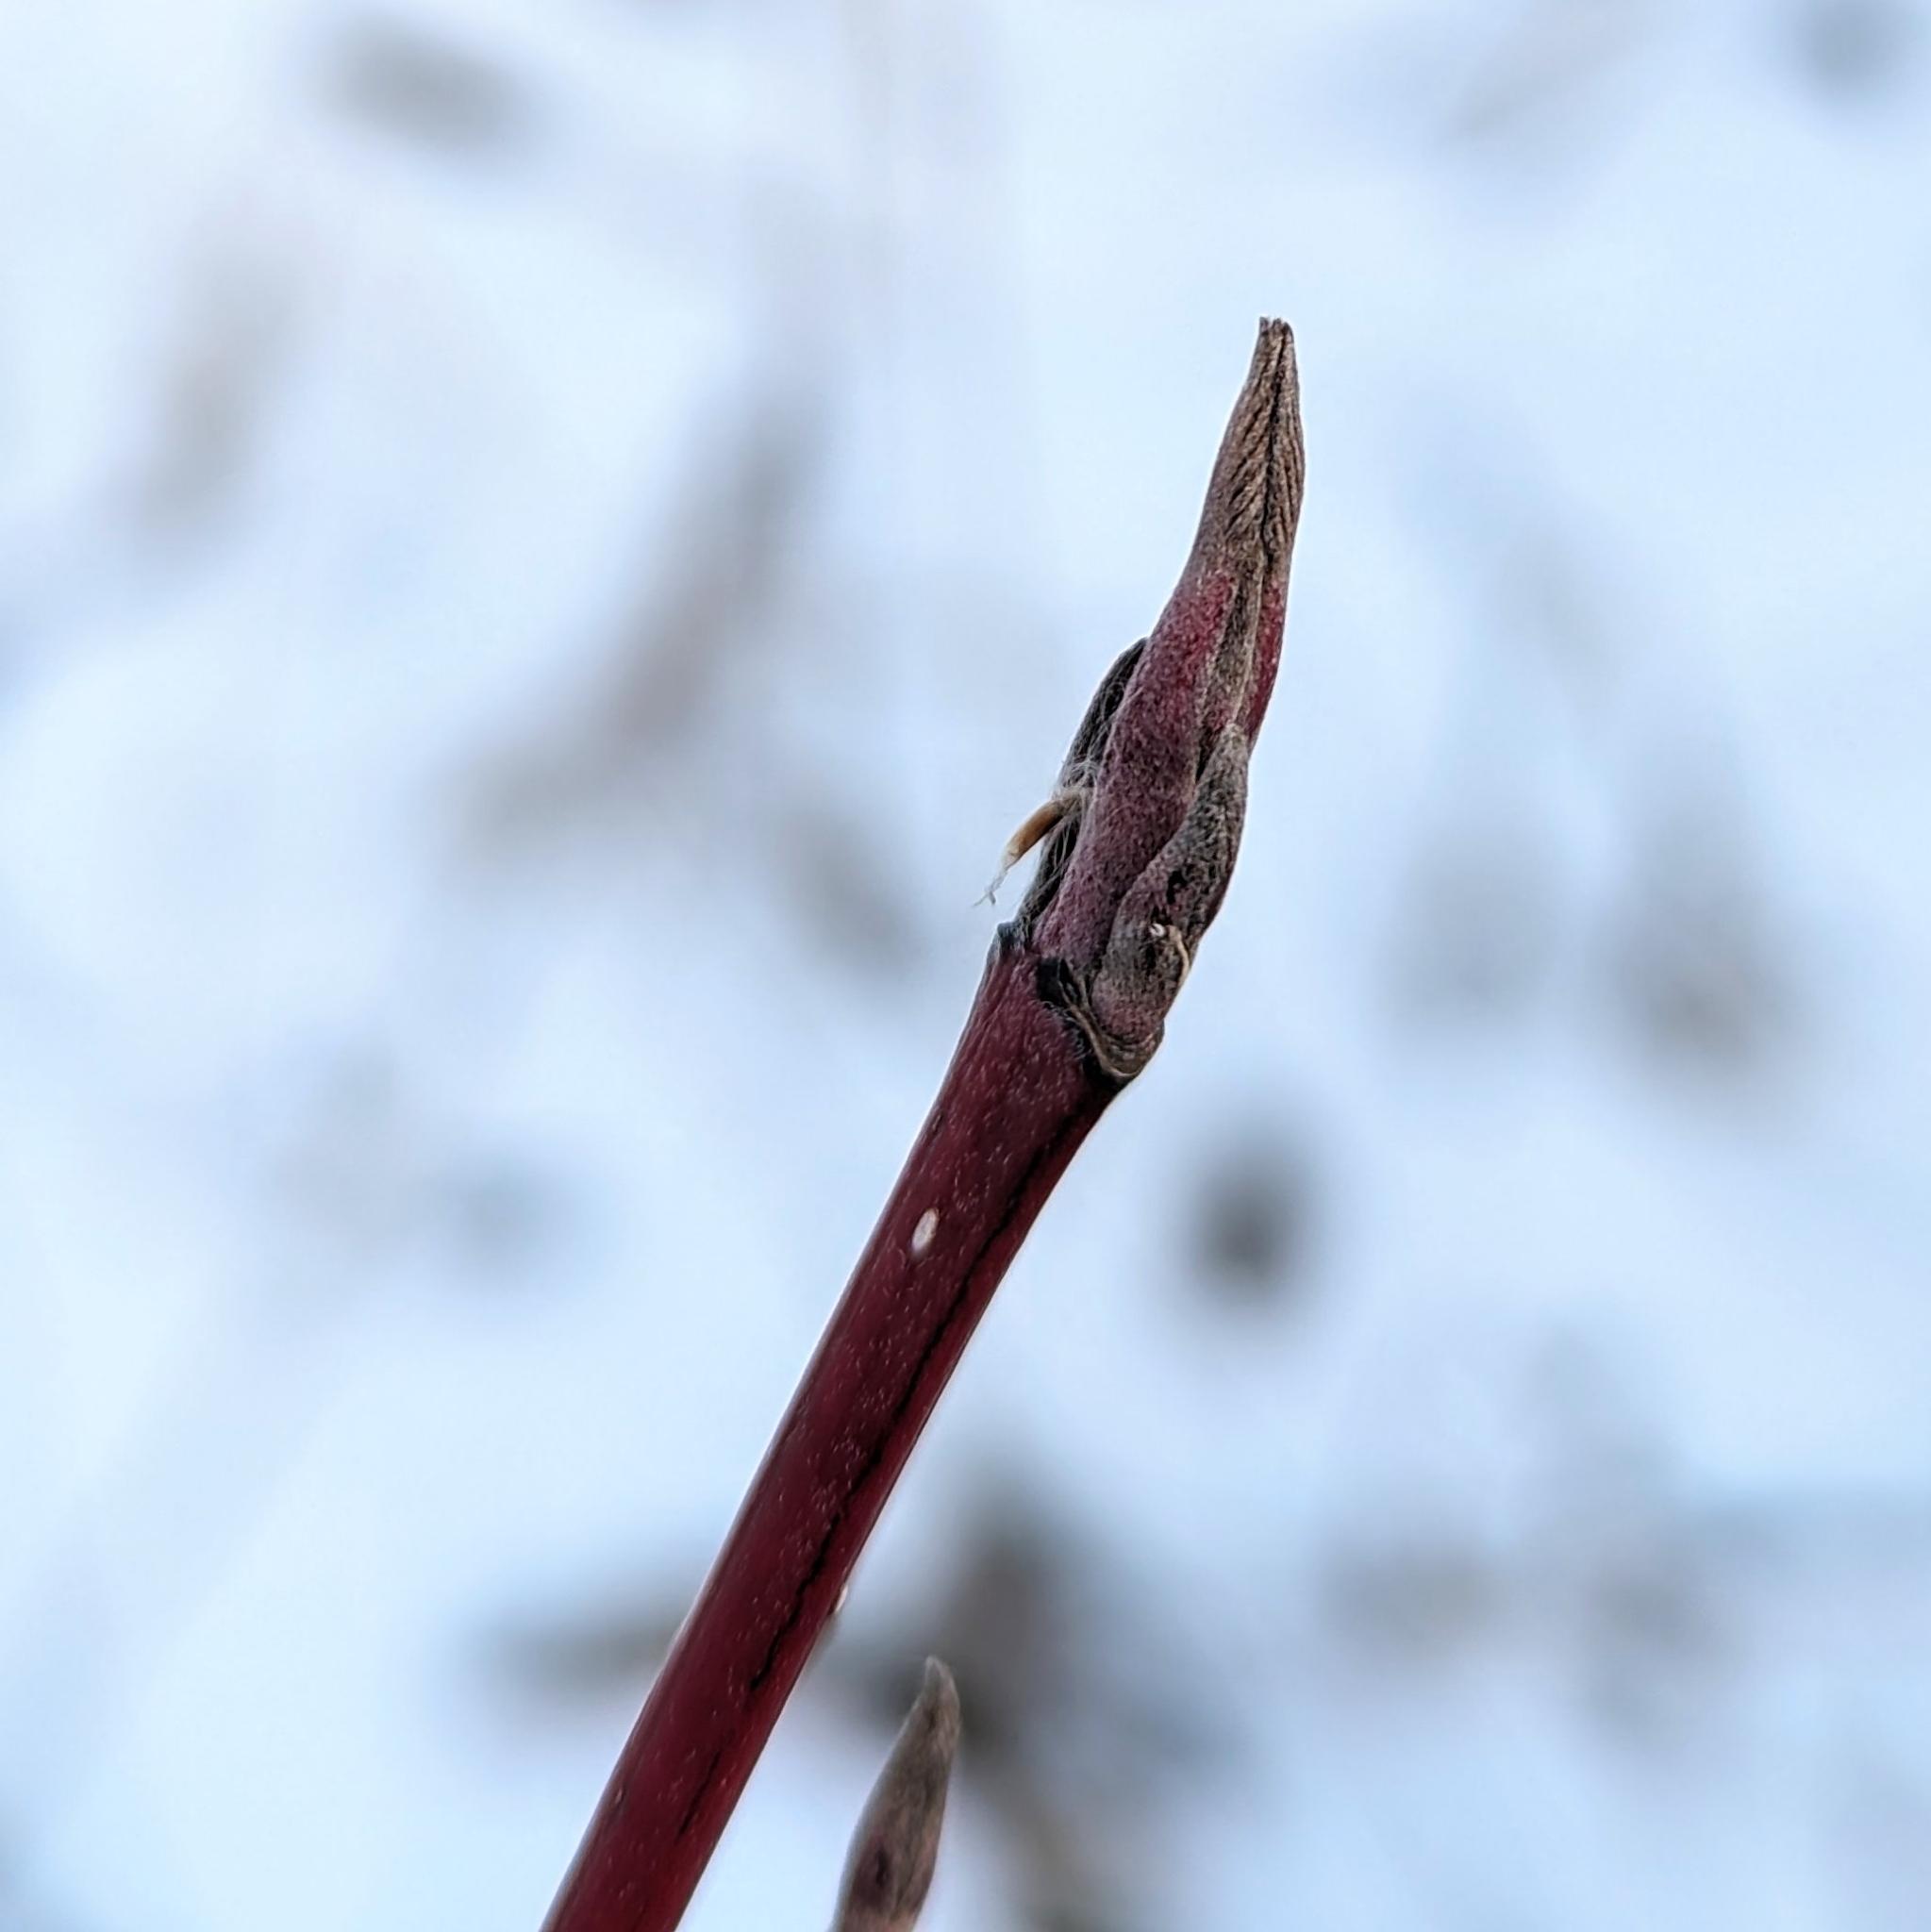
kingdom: Plantae
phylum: Tracheophyta
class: Magnoliopsida
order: Cornales
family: Cornaceae
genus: Cornus
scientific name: Cornus sericea
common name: Red-osier dogwood
